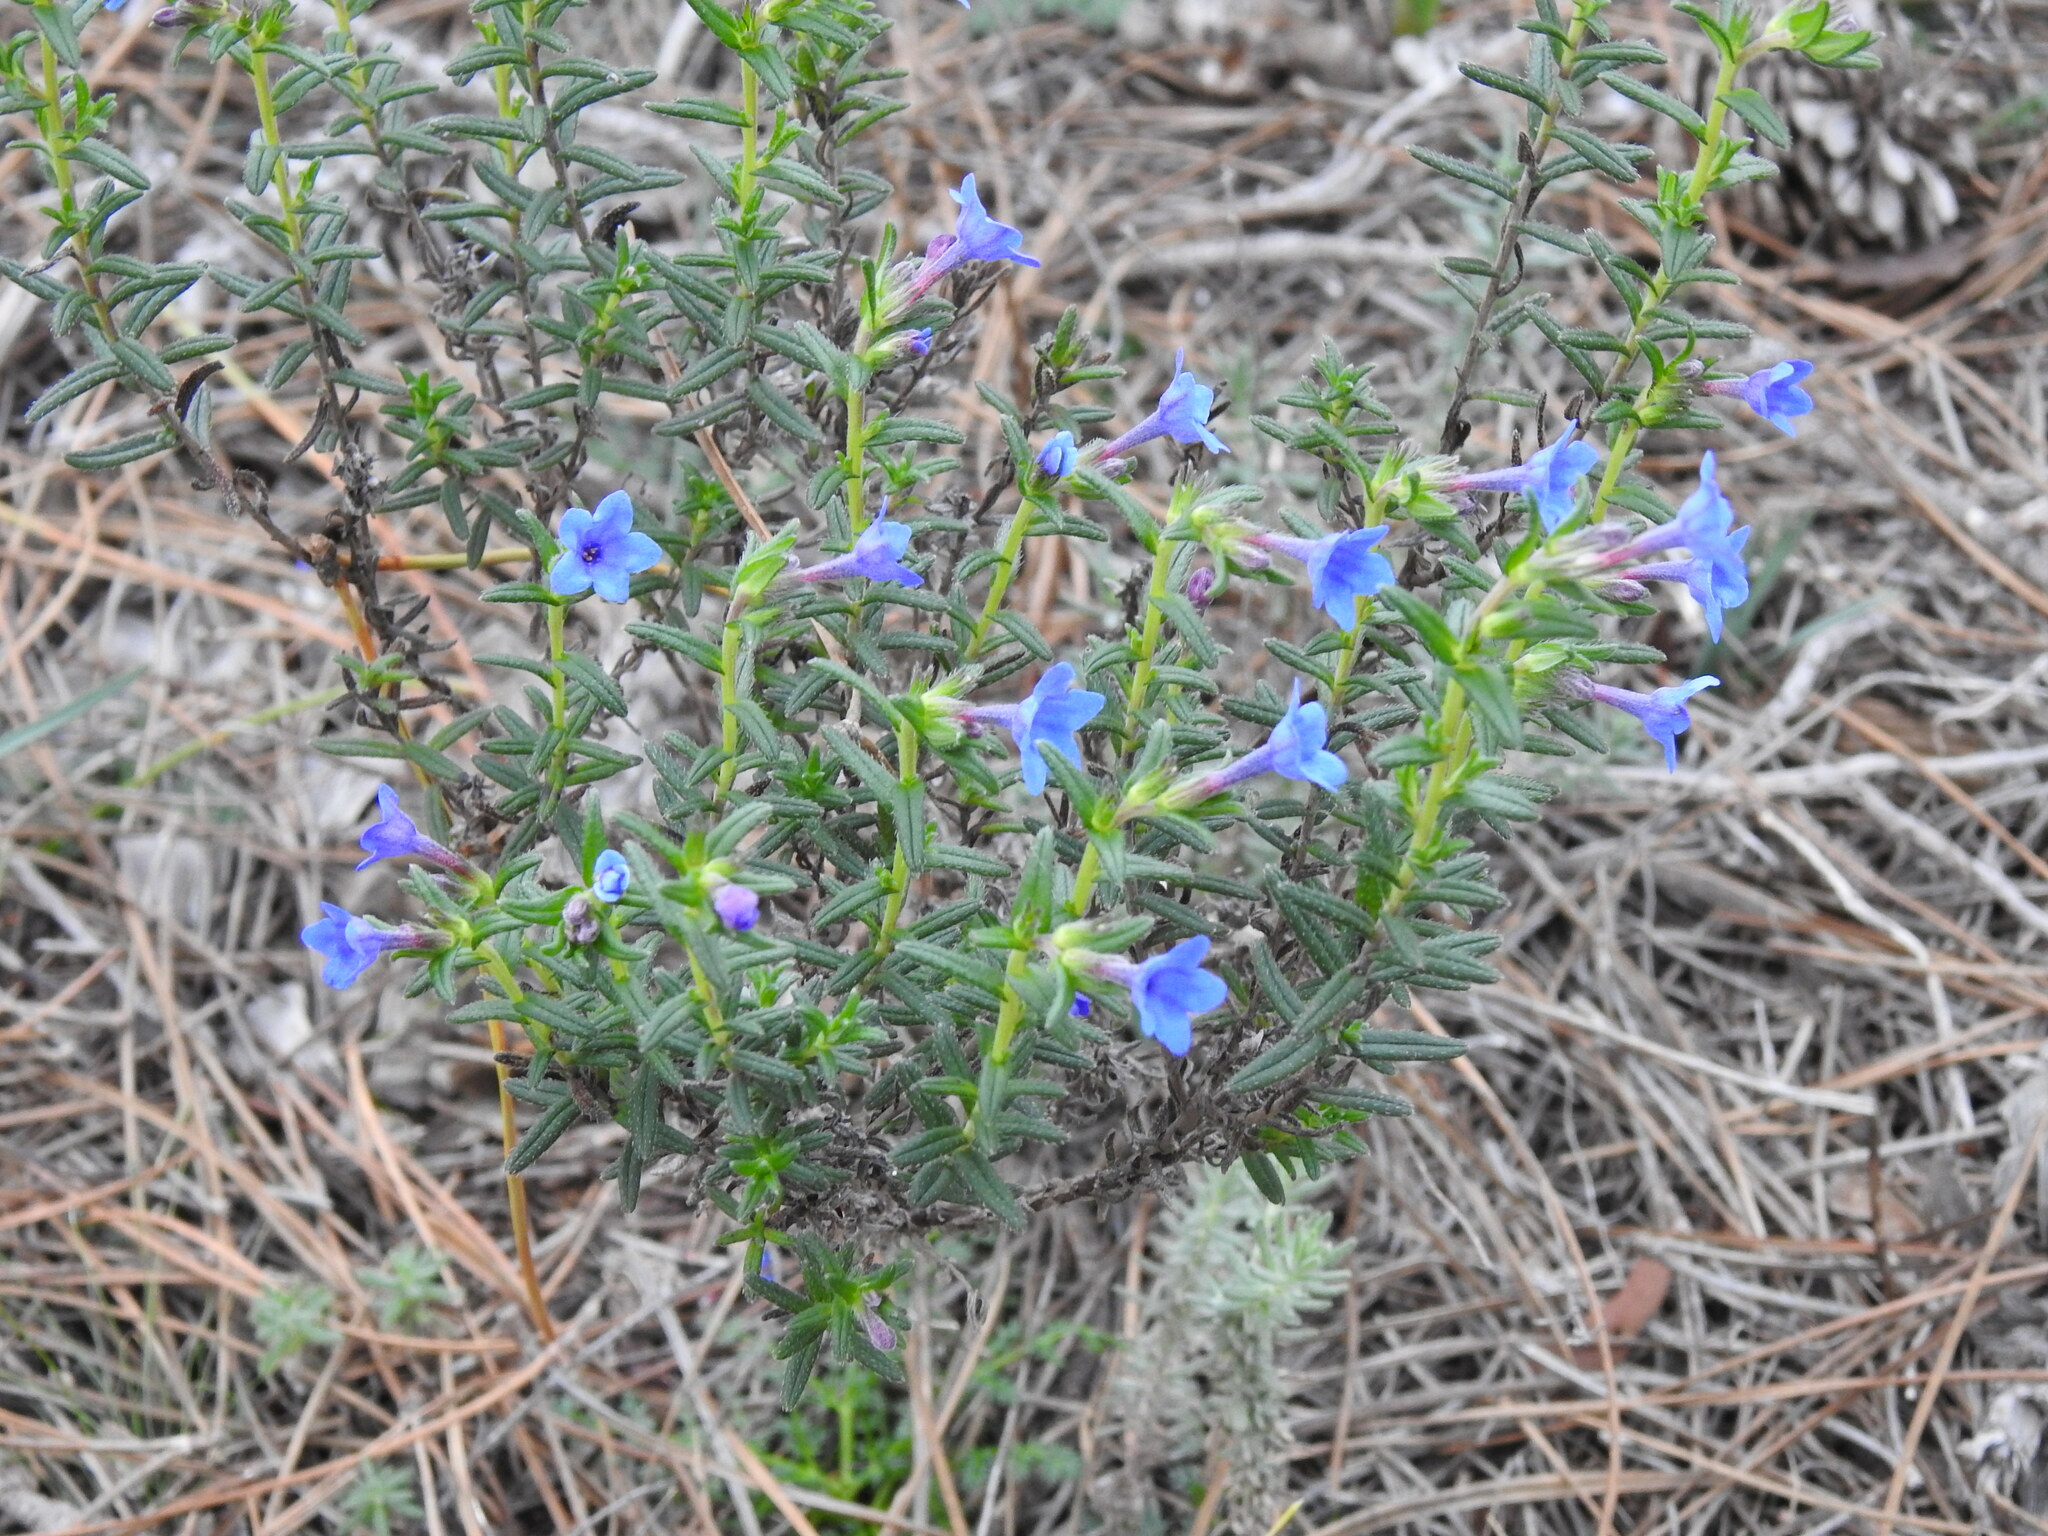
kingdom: Plantae
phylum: Tracheophyta
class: Magnoliopsida
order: Boraginales
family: Boraginaceae
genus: Glandora
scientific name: Glandora prostrata
